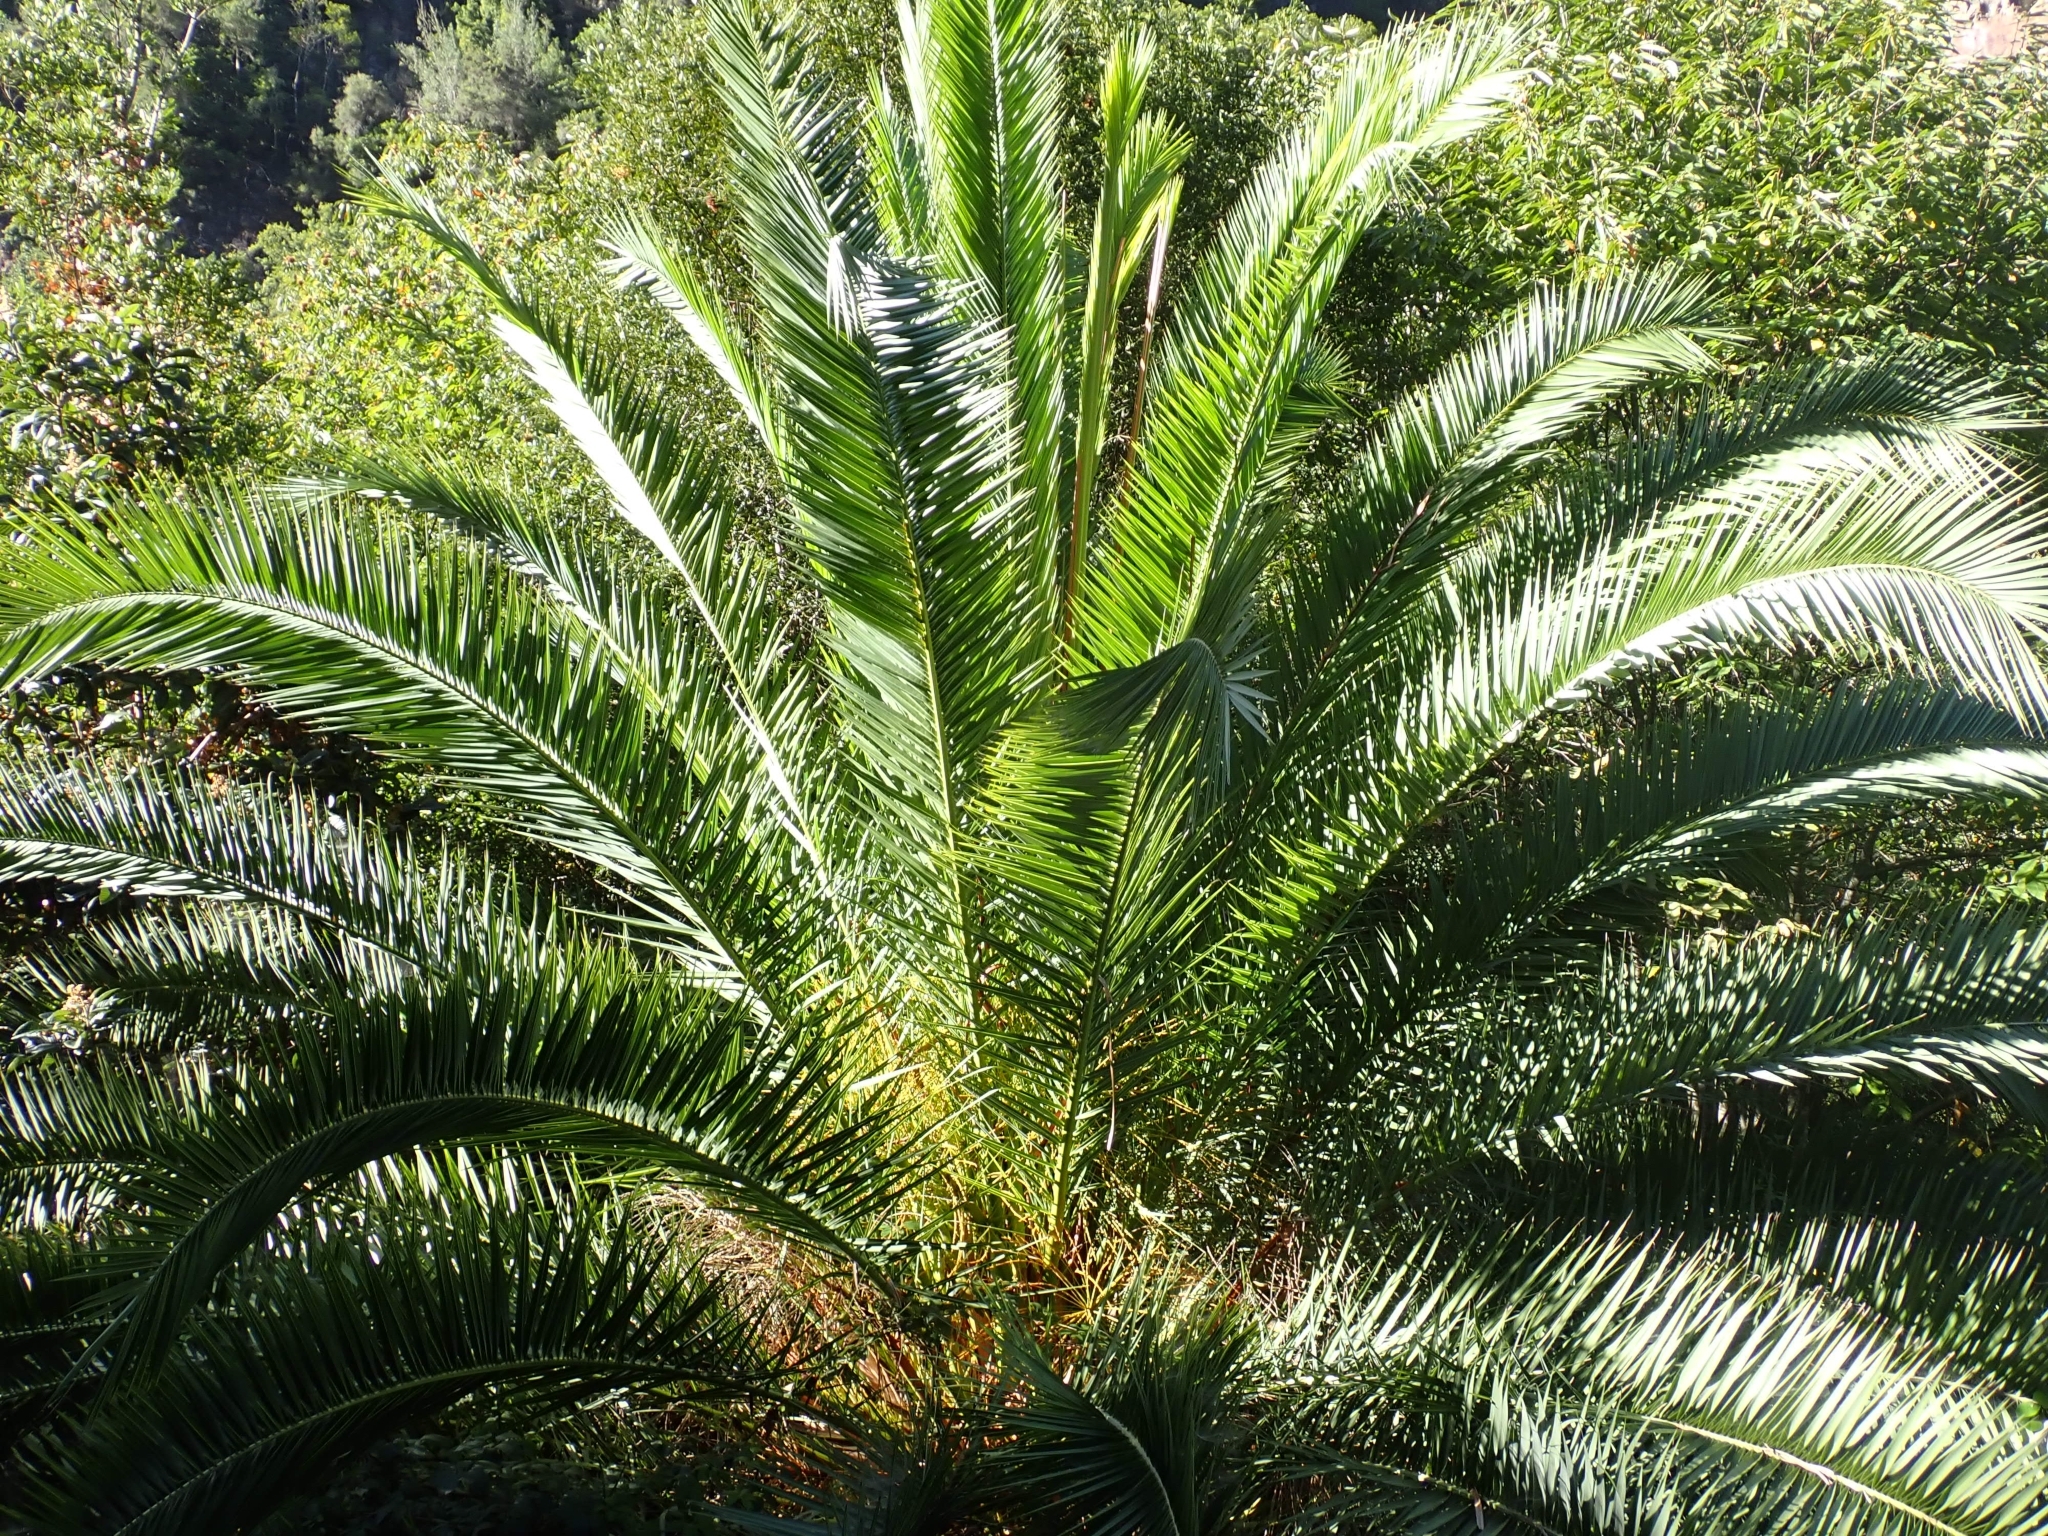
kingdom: Plantae
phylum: Tracheophyta
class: Liliopsida
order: Arecales
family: Arecaceae
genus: Phoenix
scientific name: Phoenix canariensis
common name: Canary island date palm
